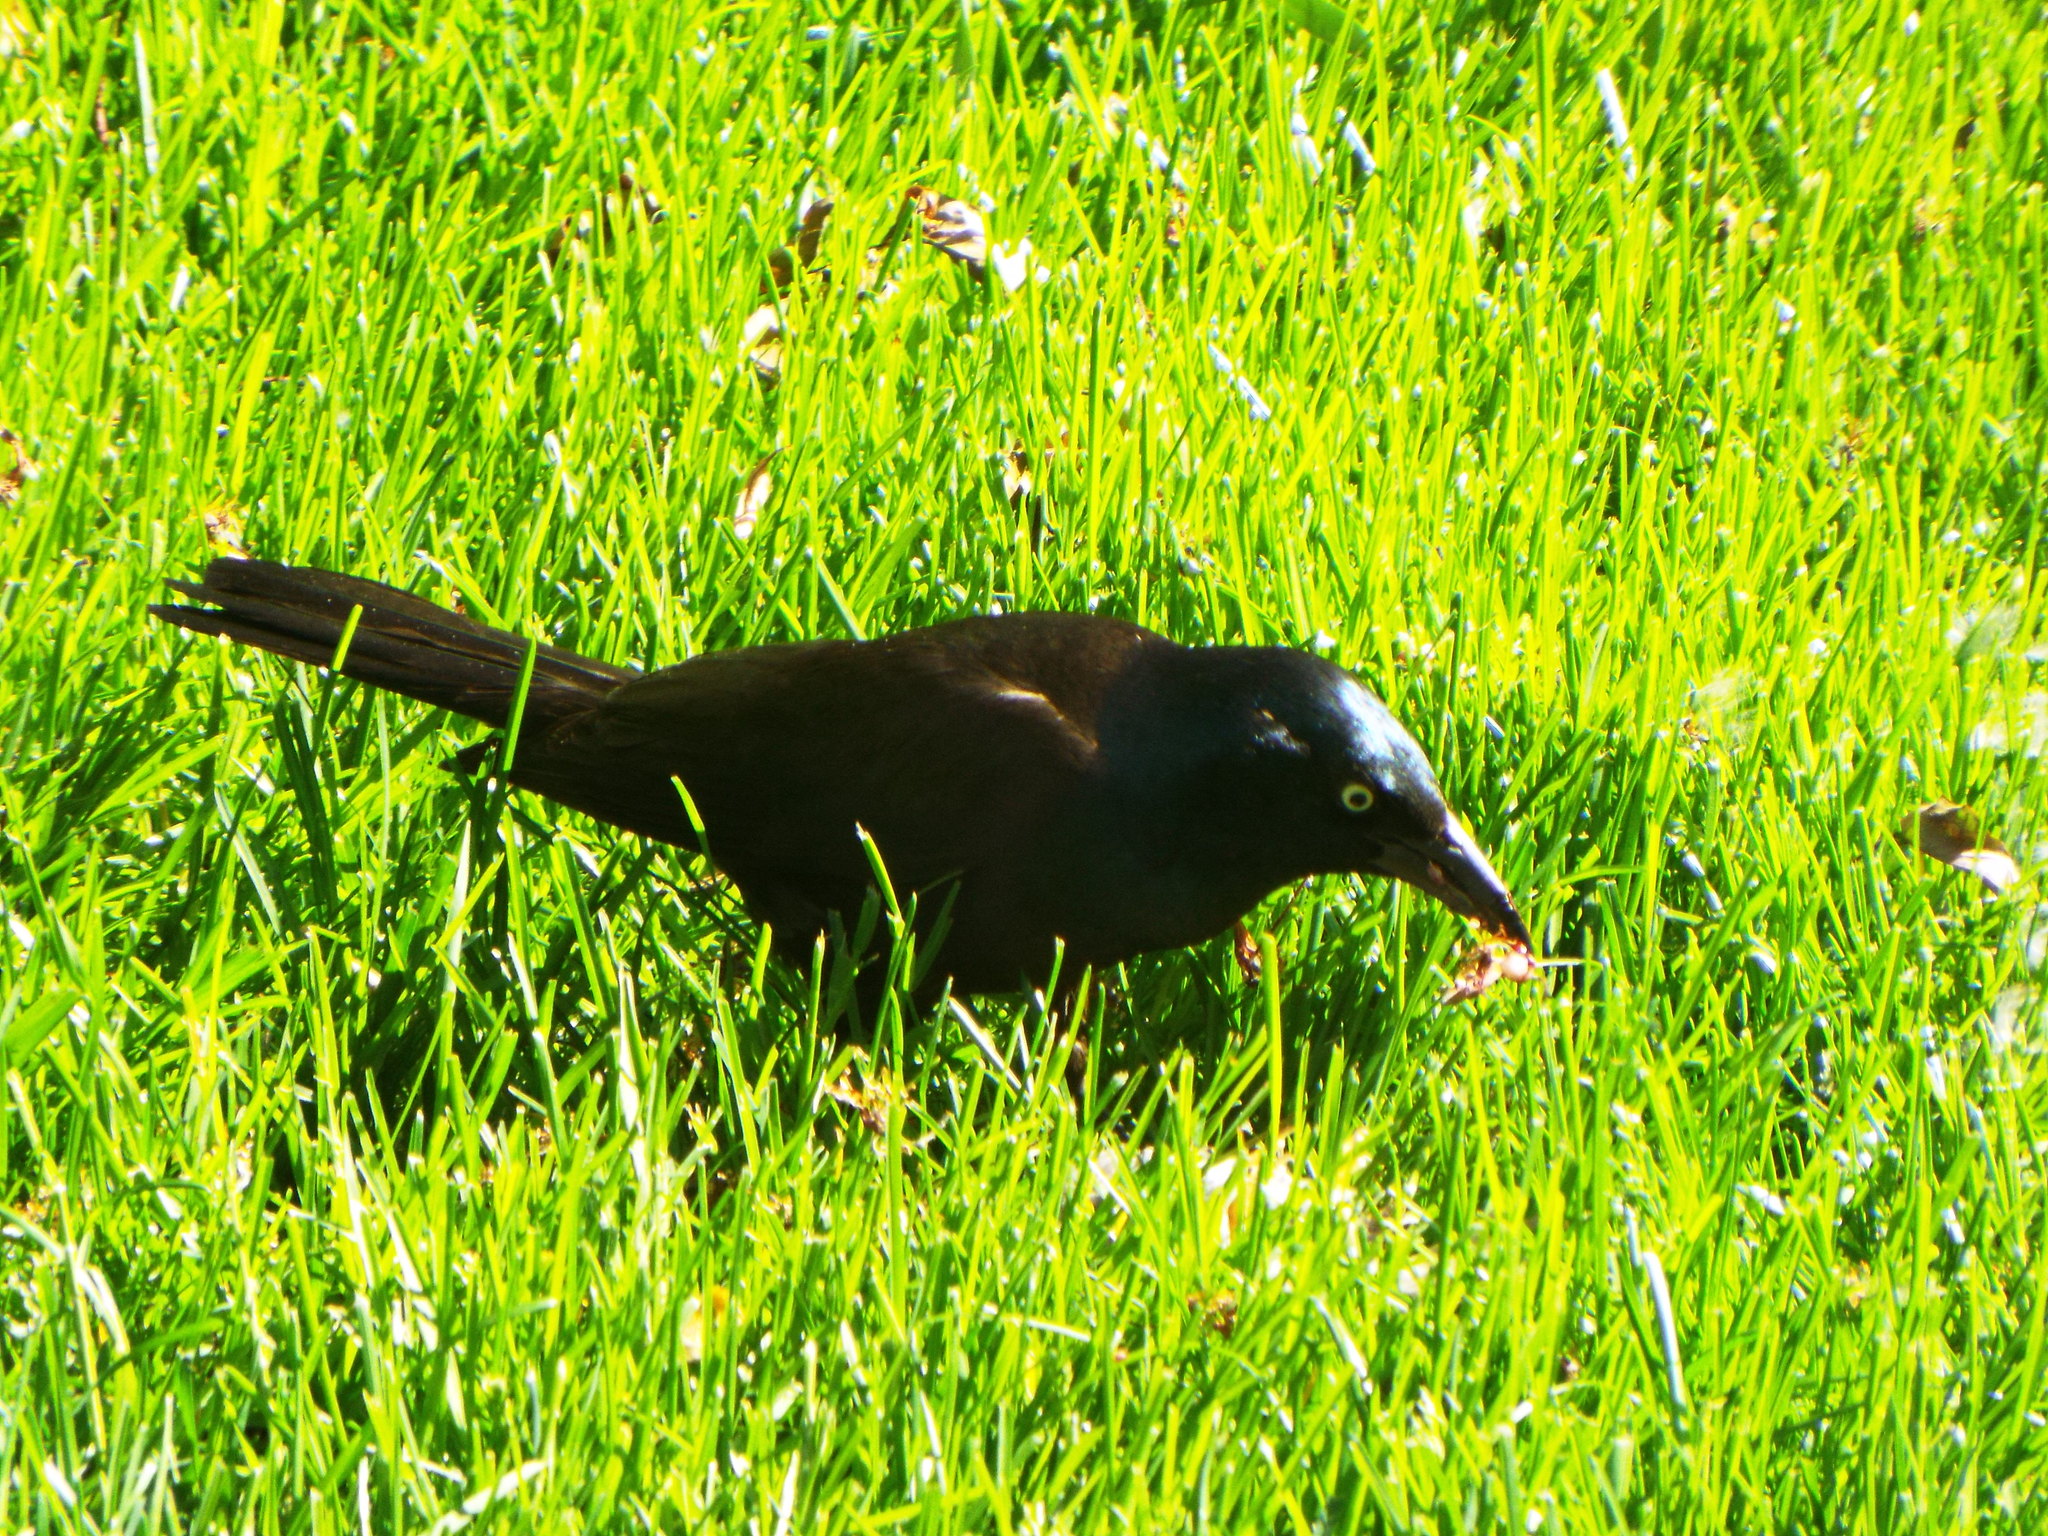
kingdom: Animalia
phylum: Chordata
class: Aves
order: Passeriformes
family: Icteridae
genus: Quiscalus
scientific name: Quiscalus quiscula
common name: Common grackle
